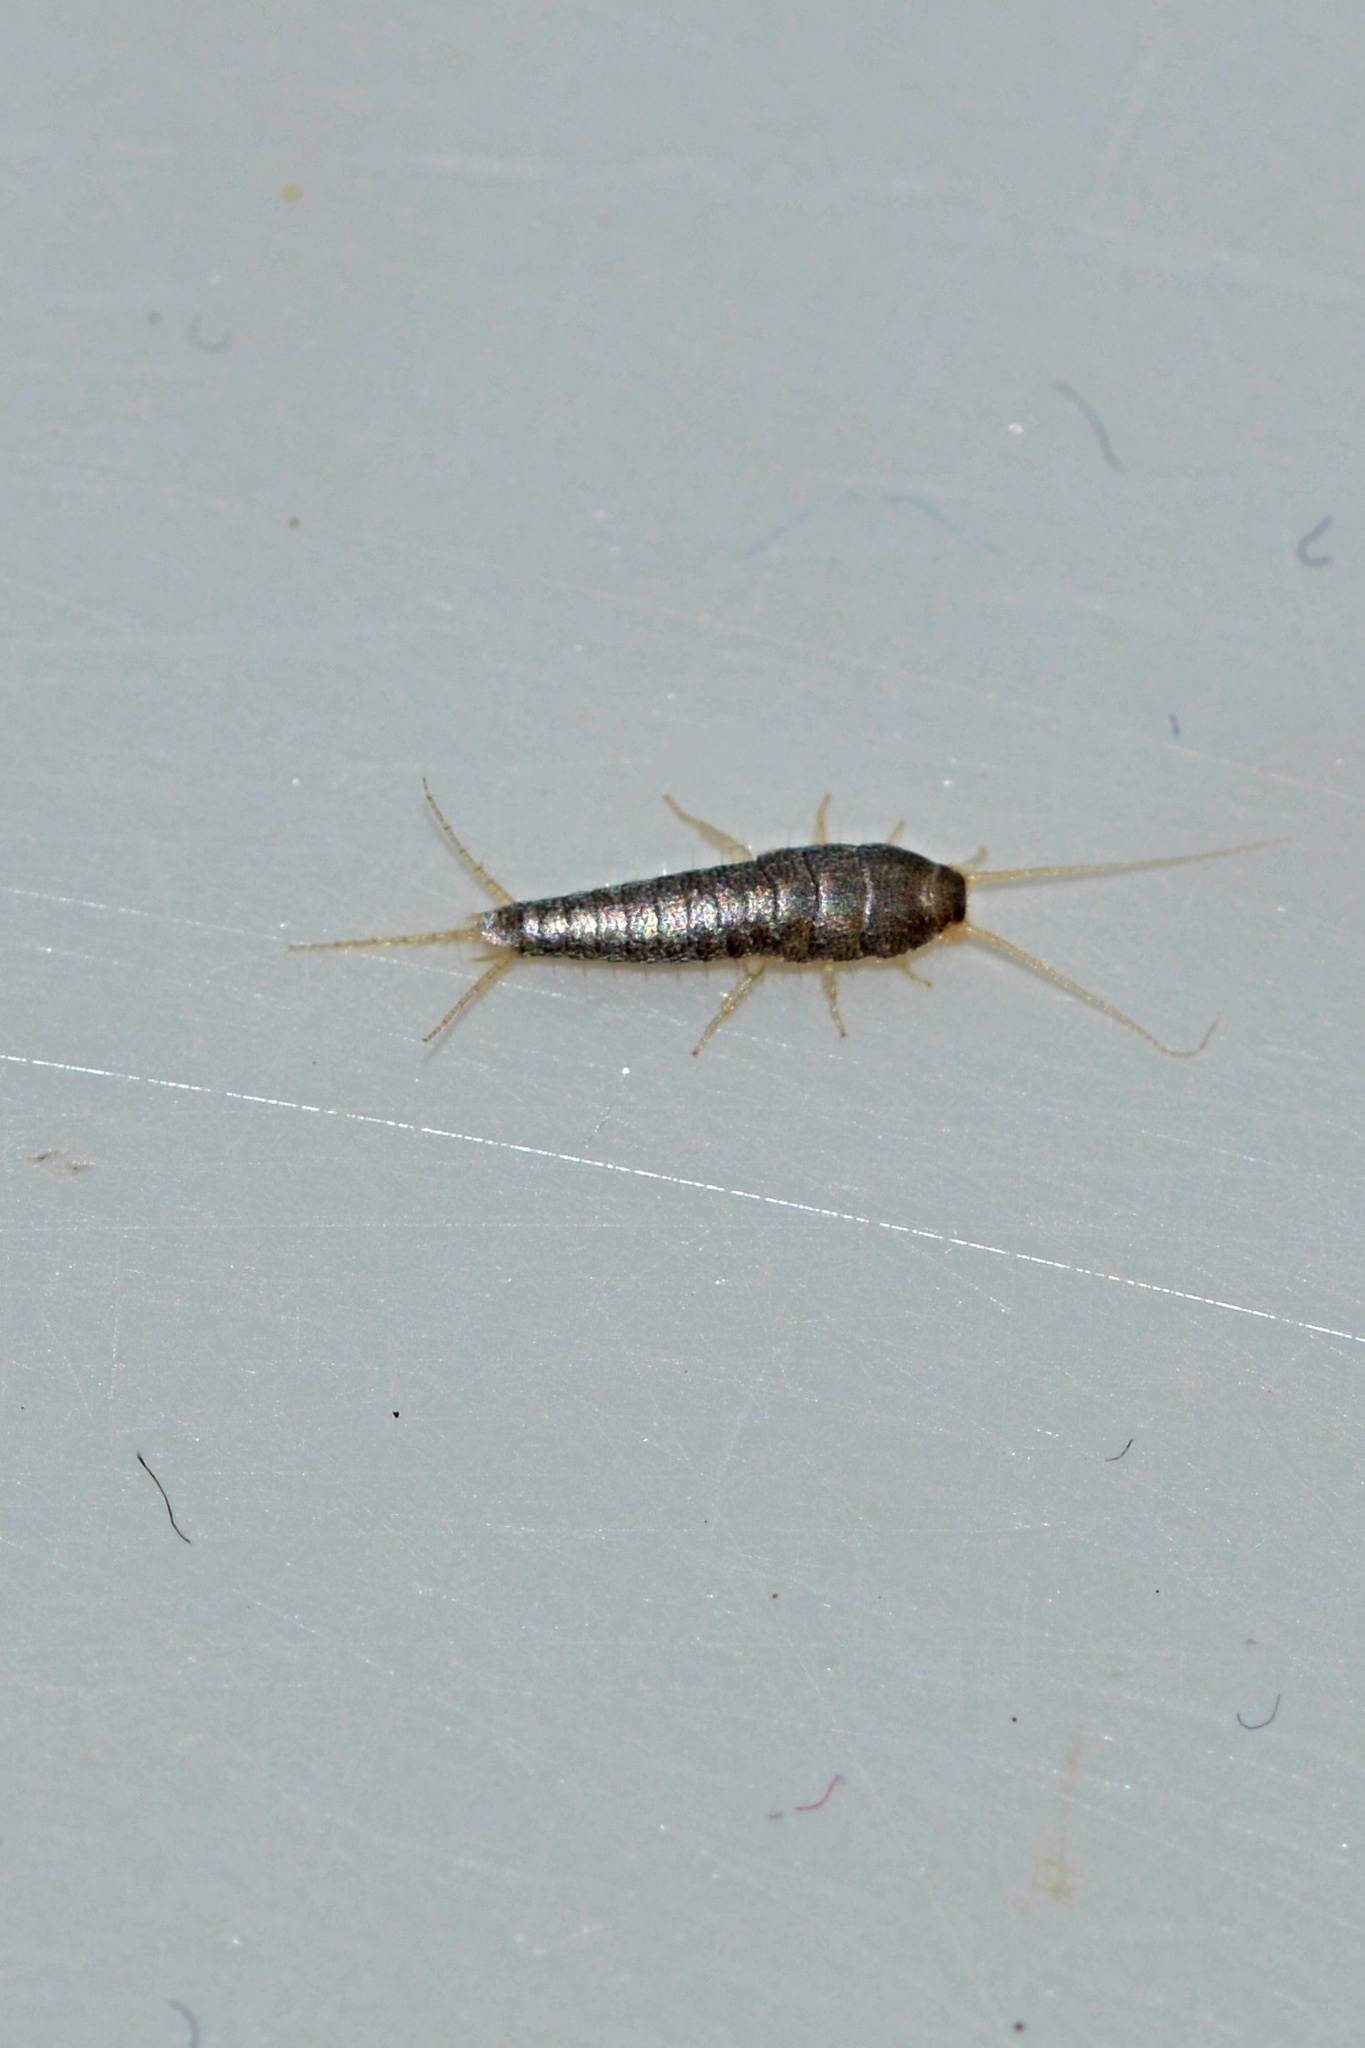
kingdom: Animalia
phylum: Arthropoda
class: Insecta
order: Zygentoma
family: Lepismatidae
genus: Lepisma
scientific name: Lepisma saccharinum
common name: Silverfish
